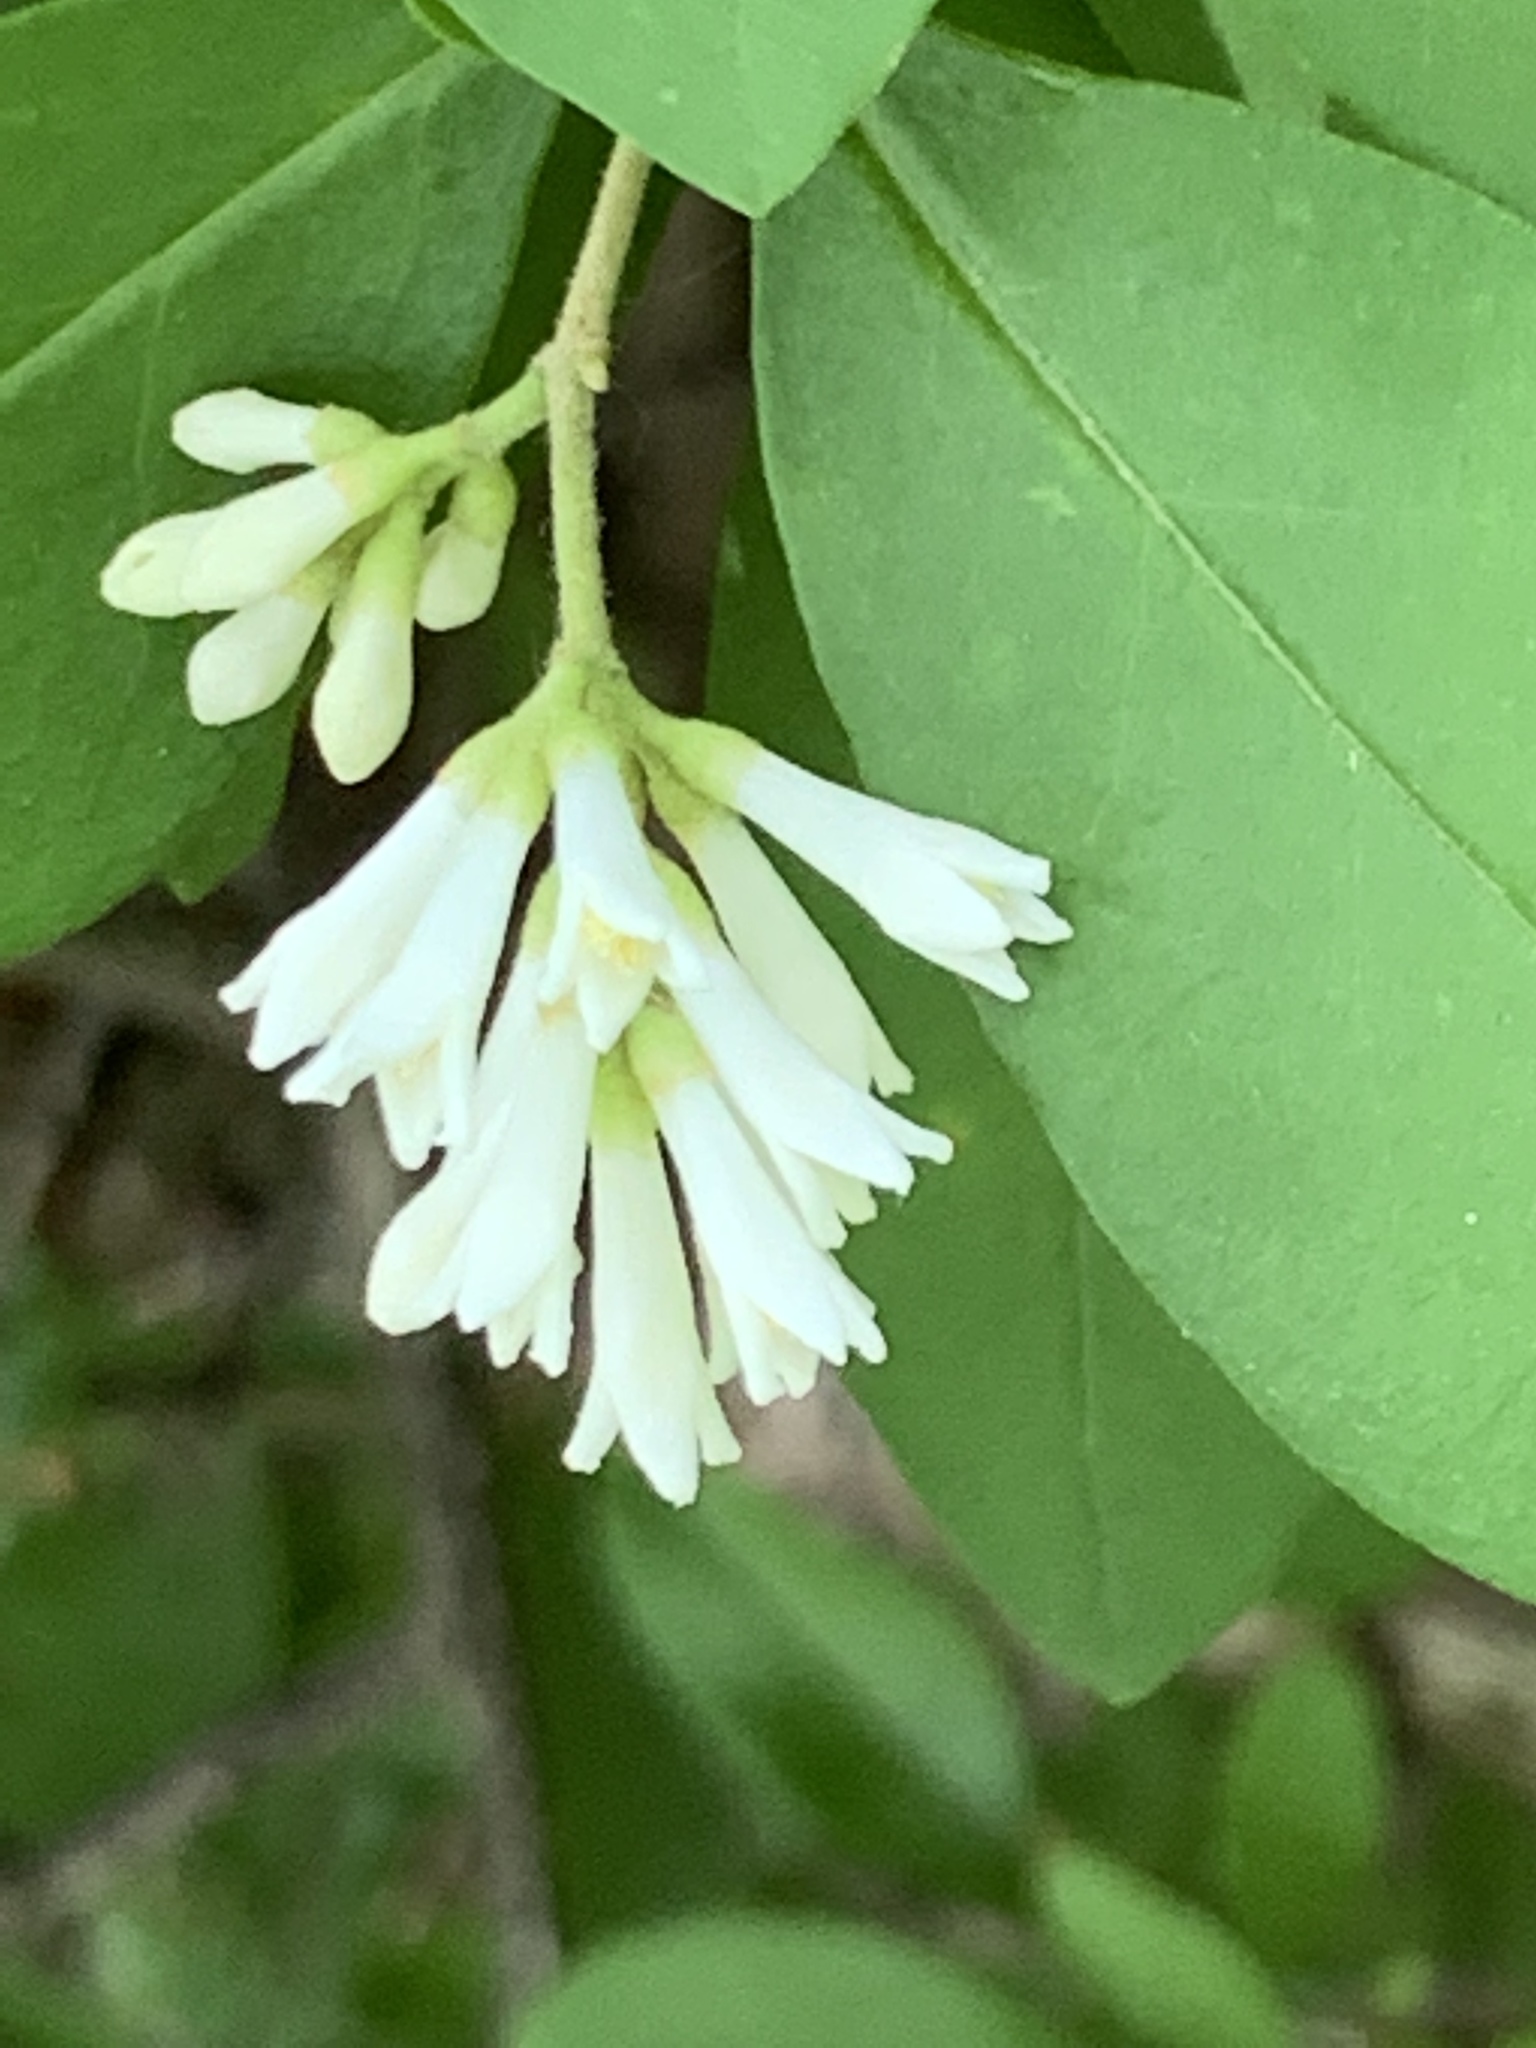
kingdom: Plantae
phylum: Tracheophyta
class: Magnoliopsida
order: Lamiales
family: Oleaceae
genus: Ligustrum
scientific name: Ligustrum obtusifolium
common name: Border privet
